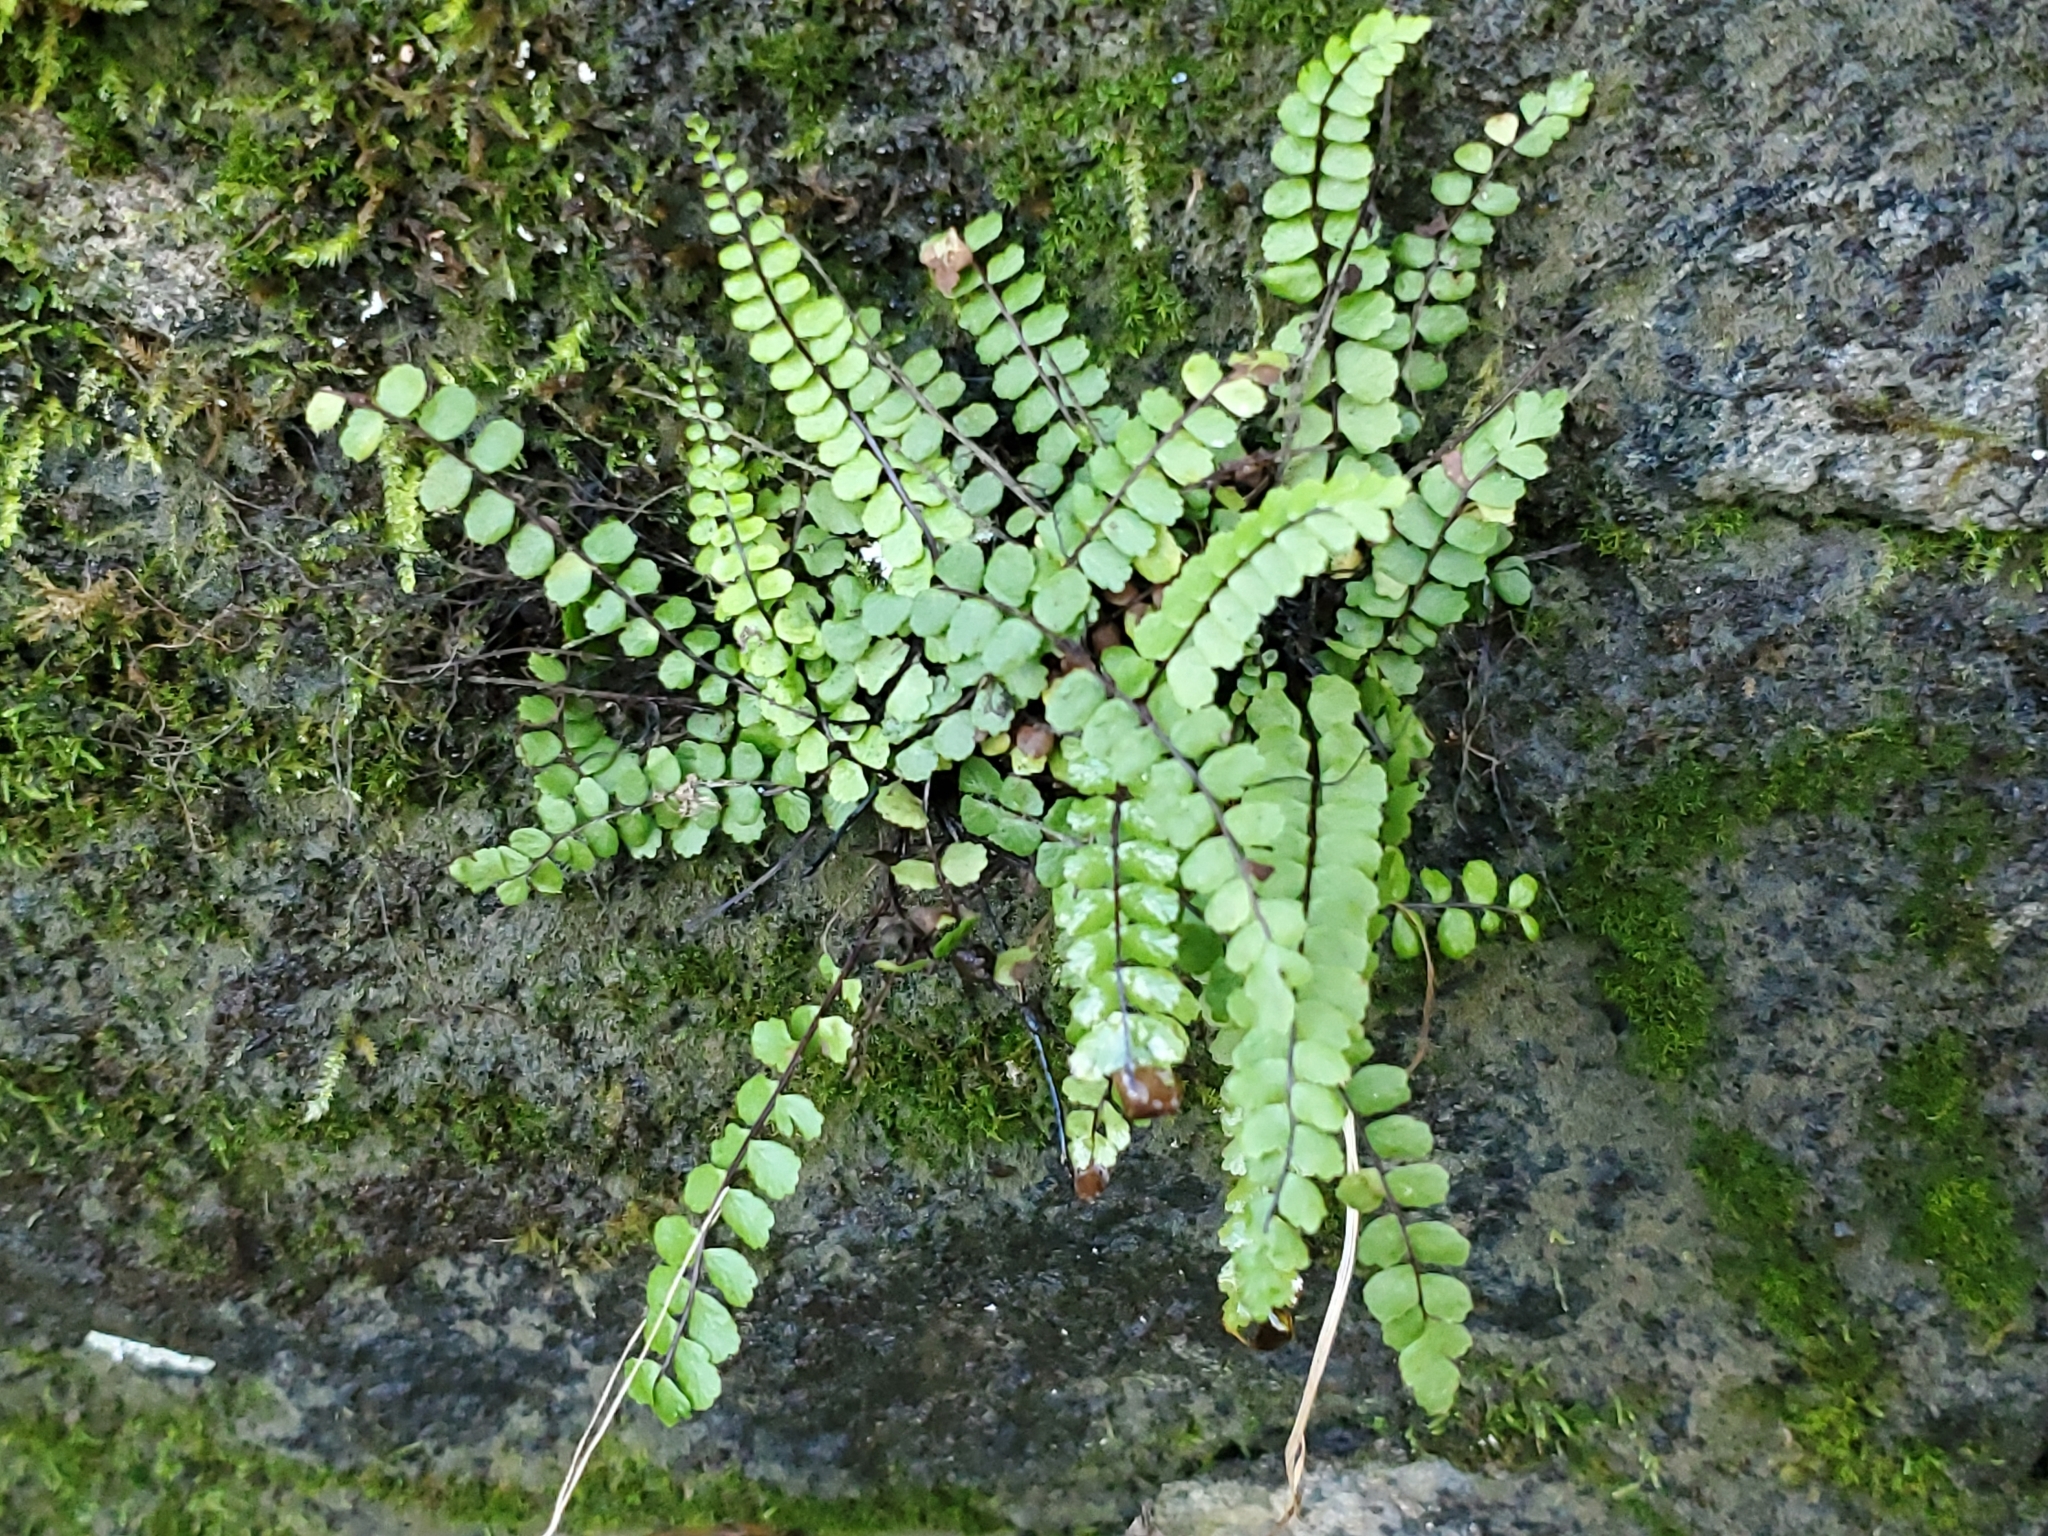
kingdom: Plantae
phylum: Tracheophyta
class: Polypodiopsida
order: Polypodiales
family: Aspleniaceae
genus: Asplenium
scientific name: Asplenium trichomanes
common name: Maidenhair spleenwort
